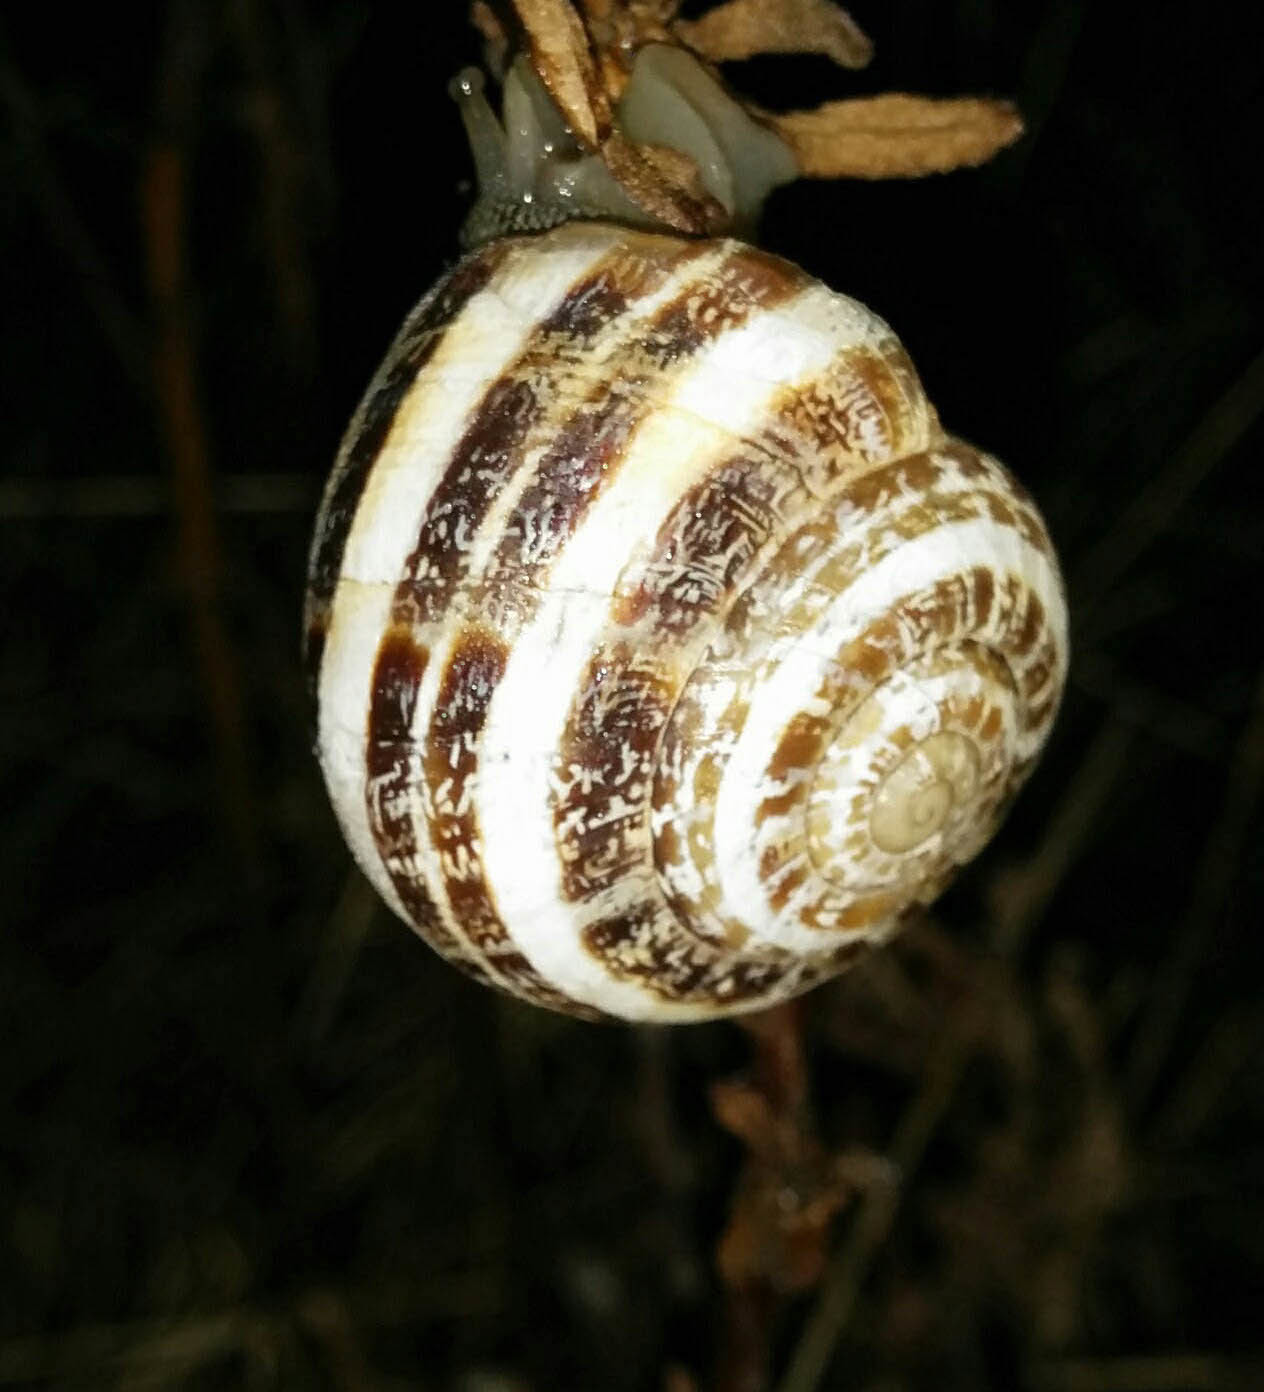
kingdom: Animalia
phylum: Mollusca
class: Gastropoda
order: Stylommatophora
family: Helicidae
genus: Eobania
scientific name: Eobania vermiculata
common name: Chocolateband snail
